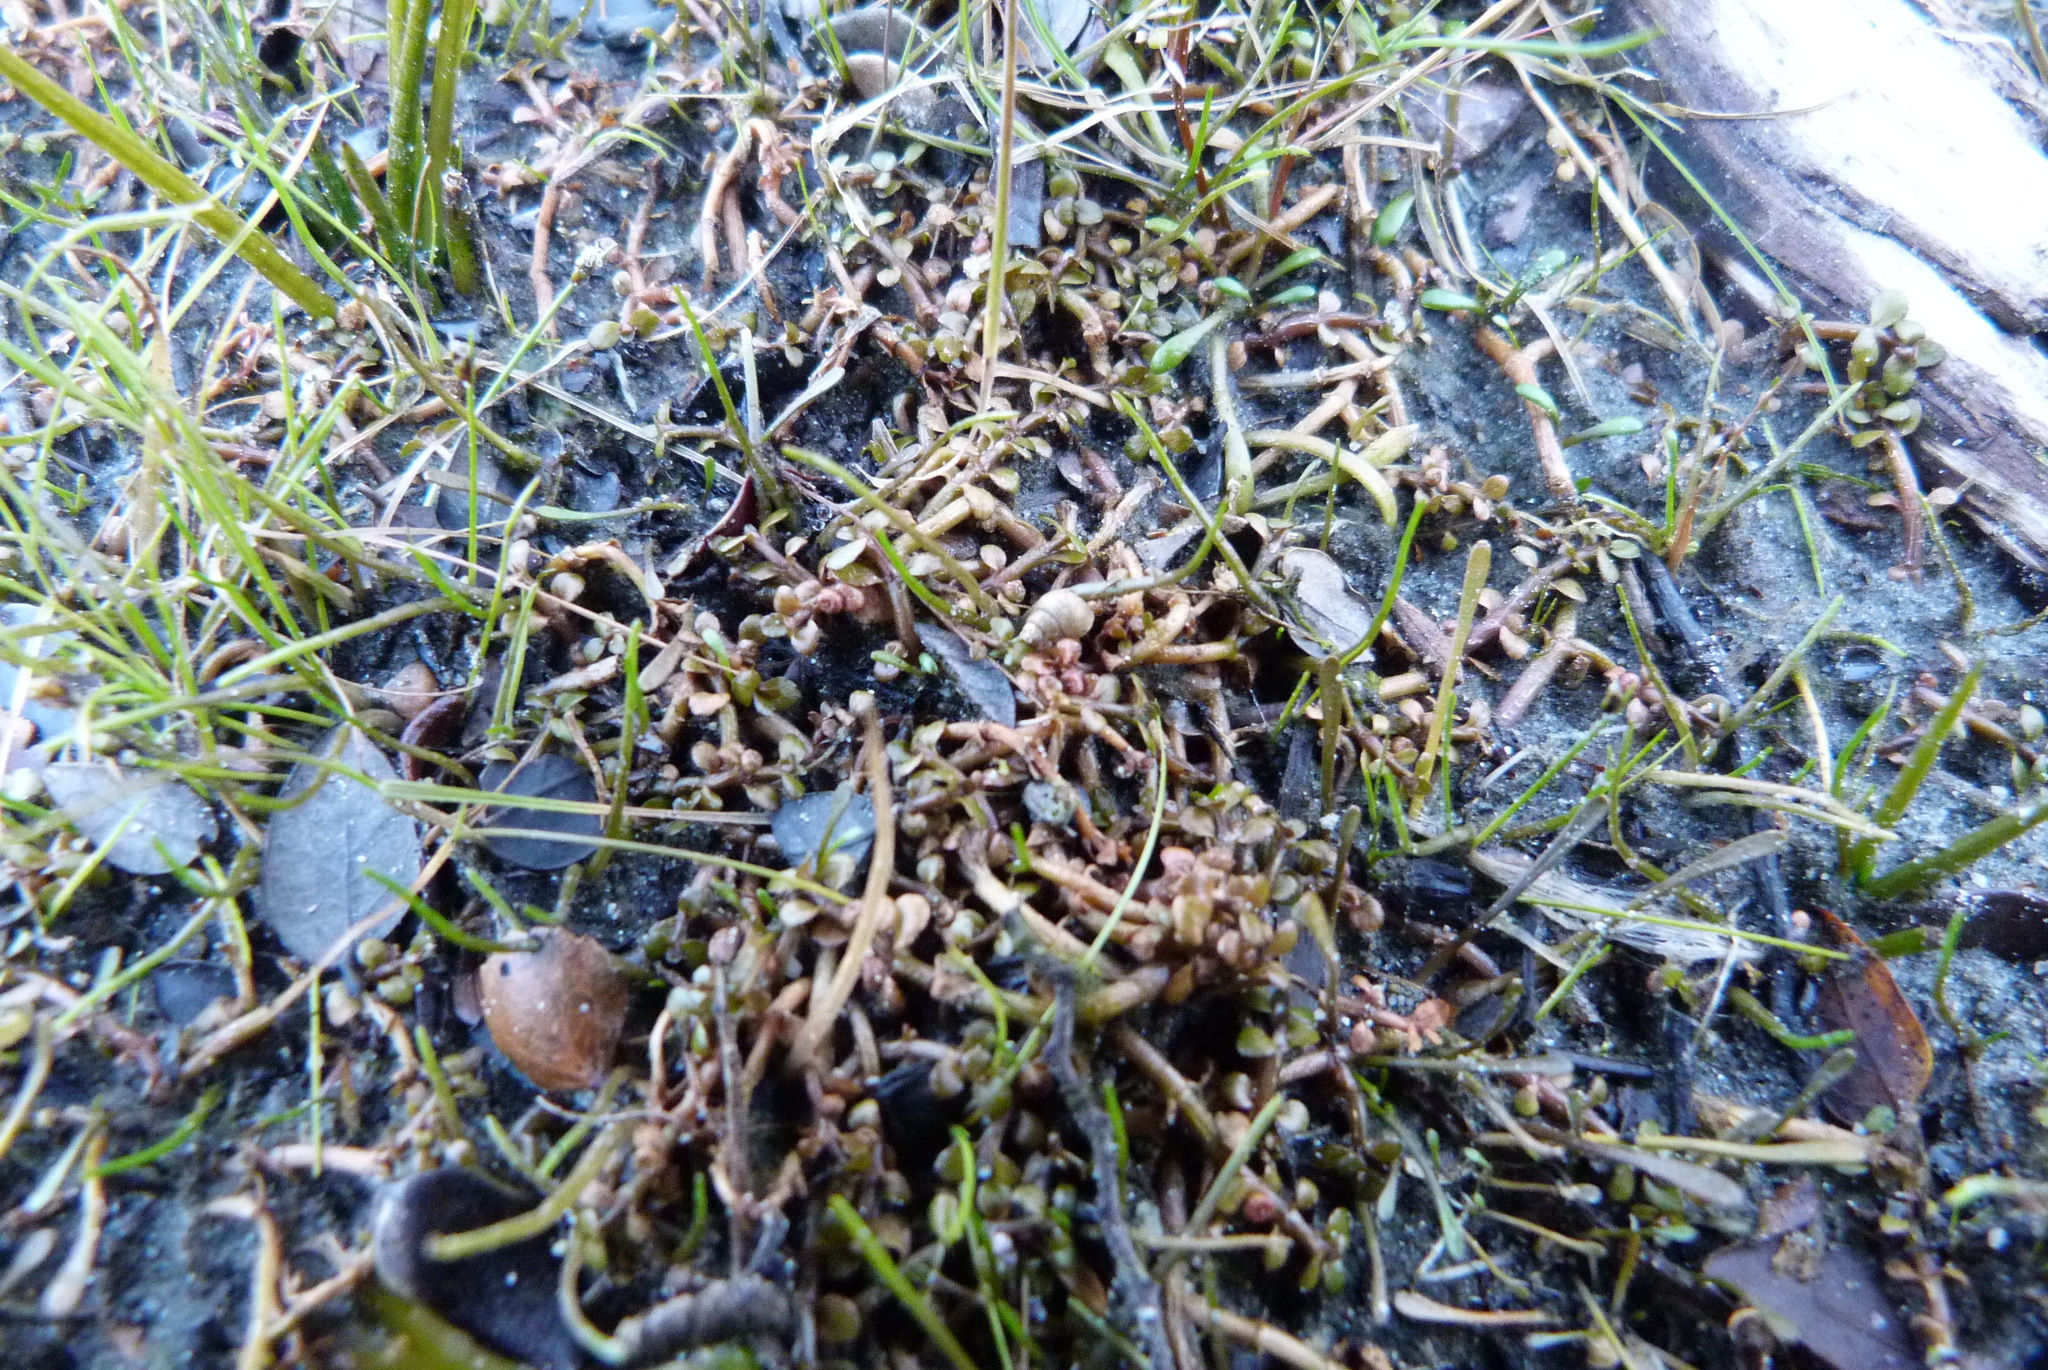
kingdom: Animalia
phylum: Mollusca
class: Gastropoda
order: Littorinimorpha
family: Tateidae
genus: Potamopyrgus
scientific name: Potamopyrgus antipodarum
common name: Jenkins' spire snail
